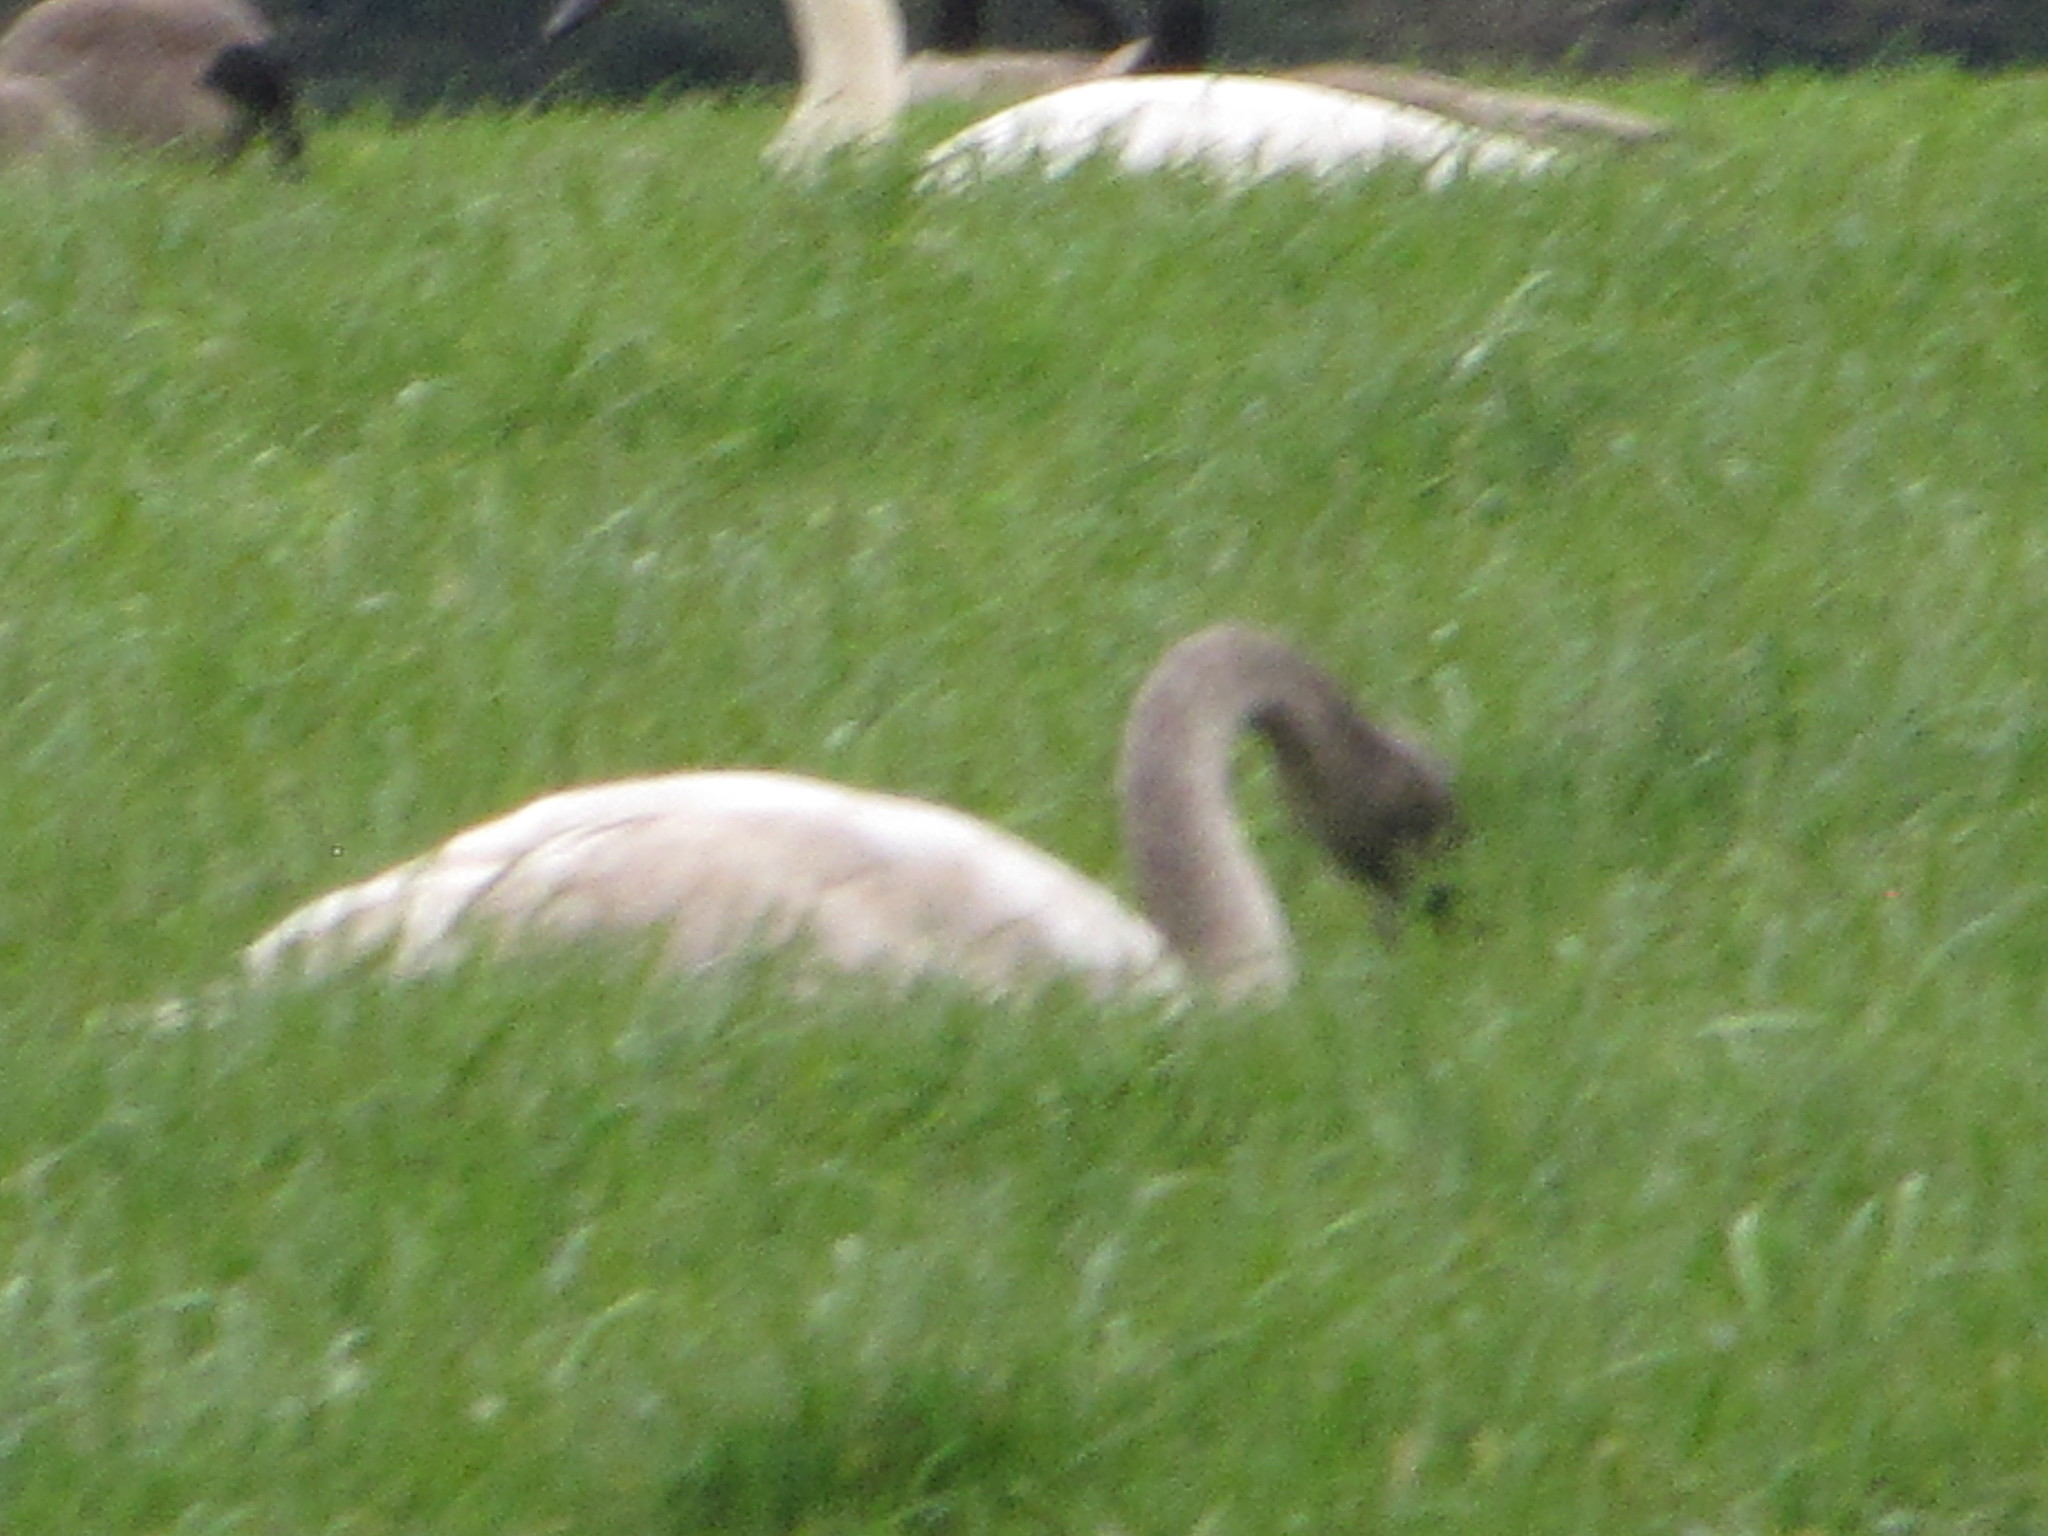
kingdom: Animalia
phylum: Chordata
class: Aves
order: Anseriformes
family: Anatidae
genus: Cygnus
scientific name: Cygnus buccinator
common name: Trumpeter swan
